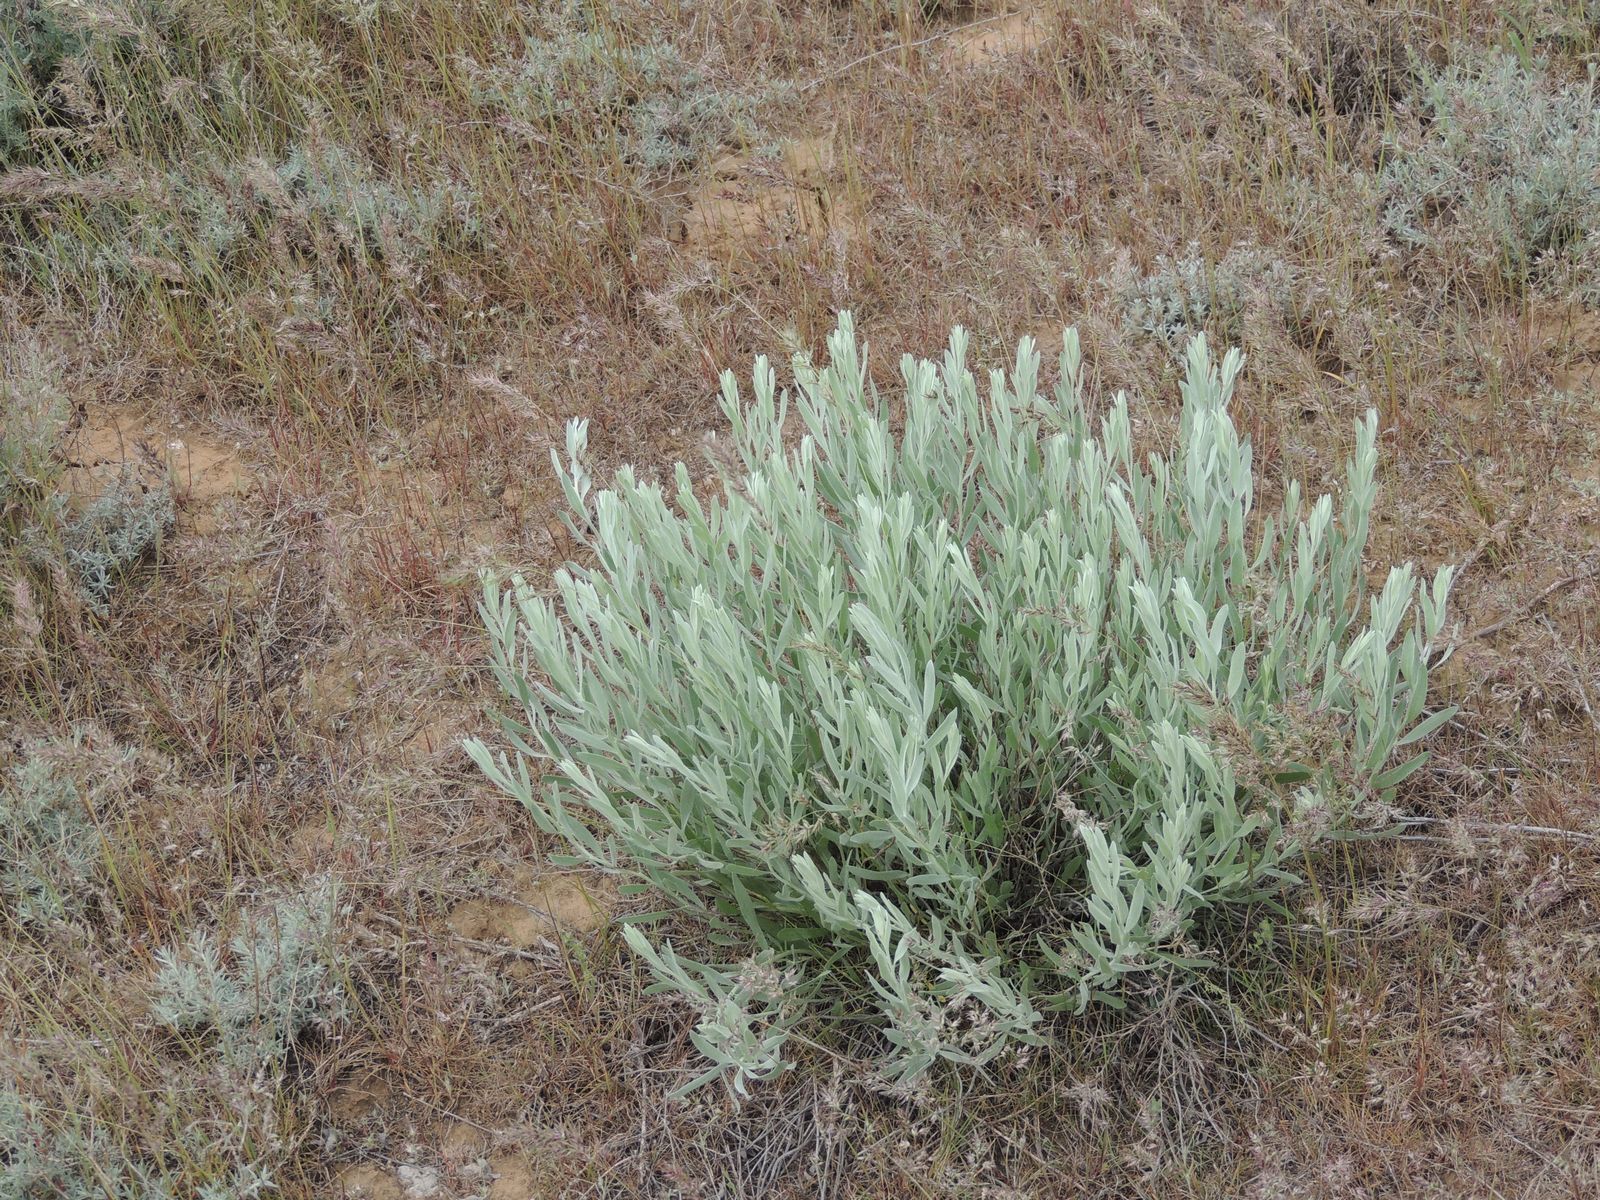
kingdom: Plantae
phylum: Tracheophyta
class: Magnoliopsida
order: Asterales
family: Asteraceae
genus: Galatella
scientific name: Galatella villosa
